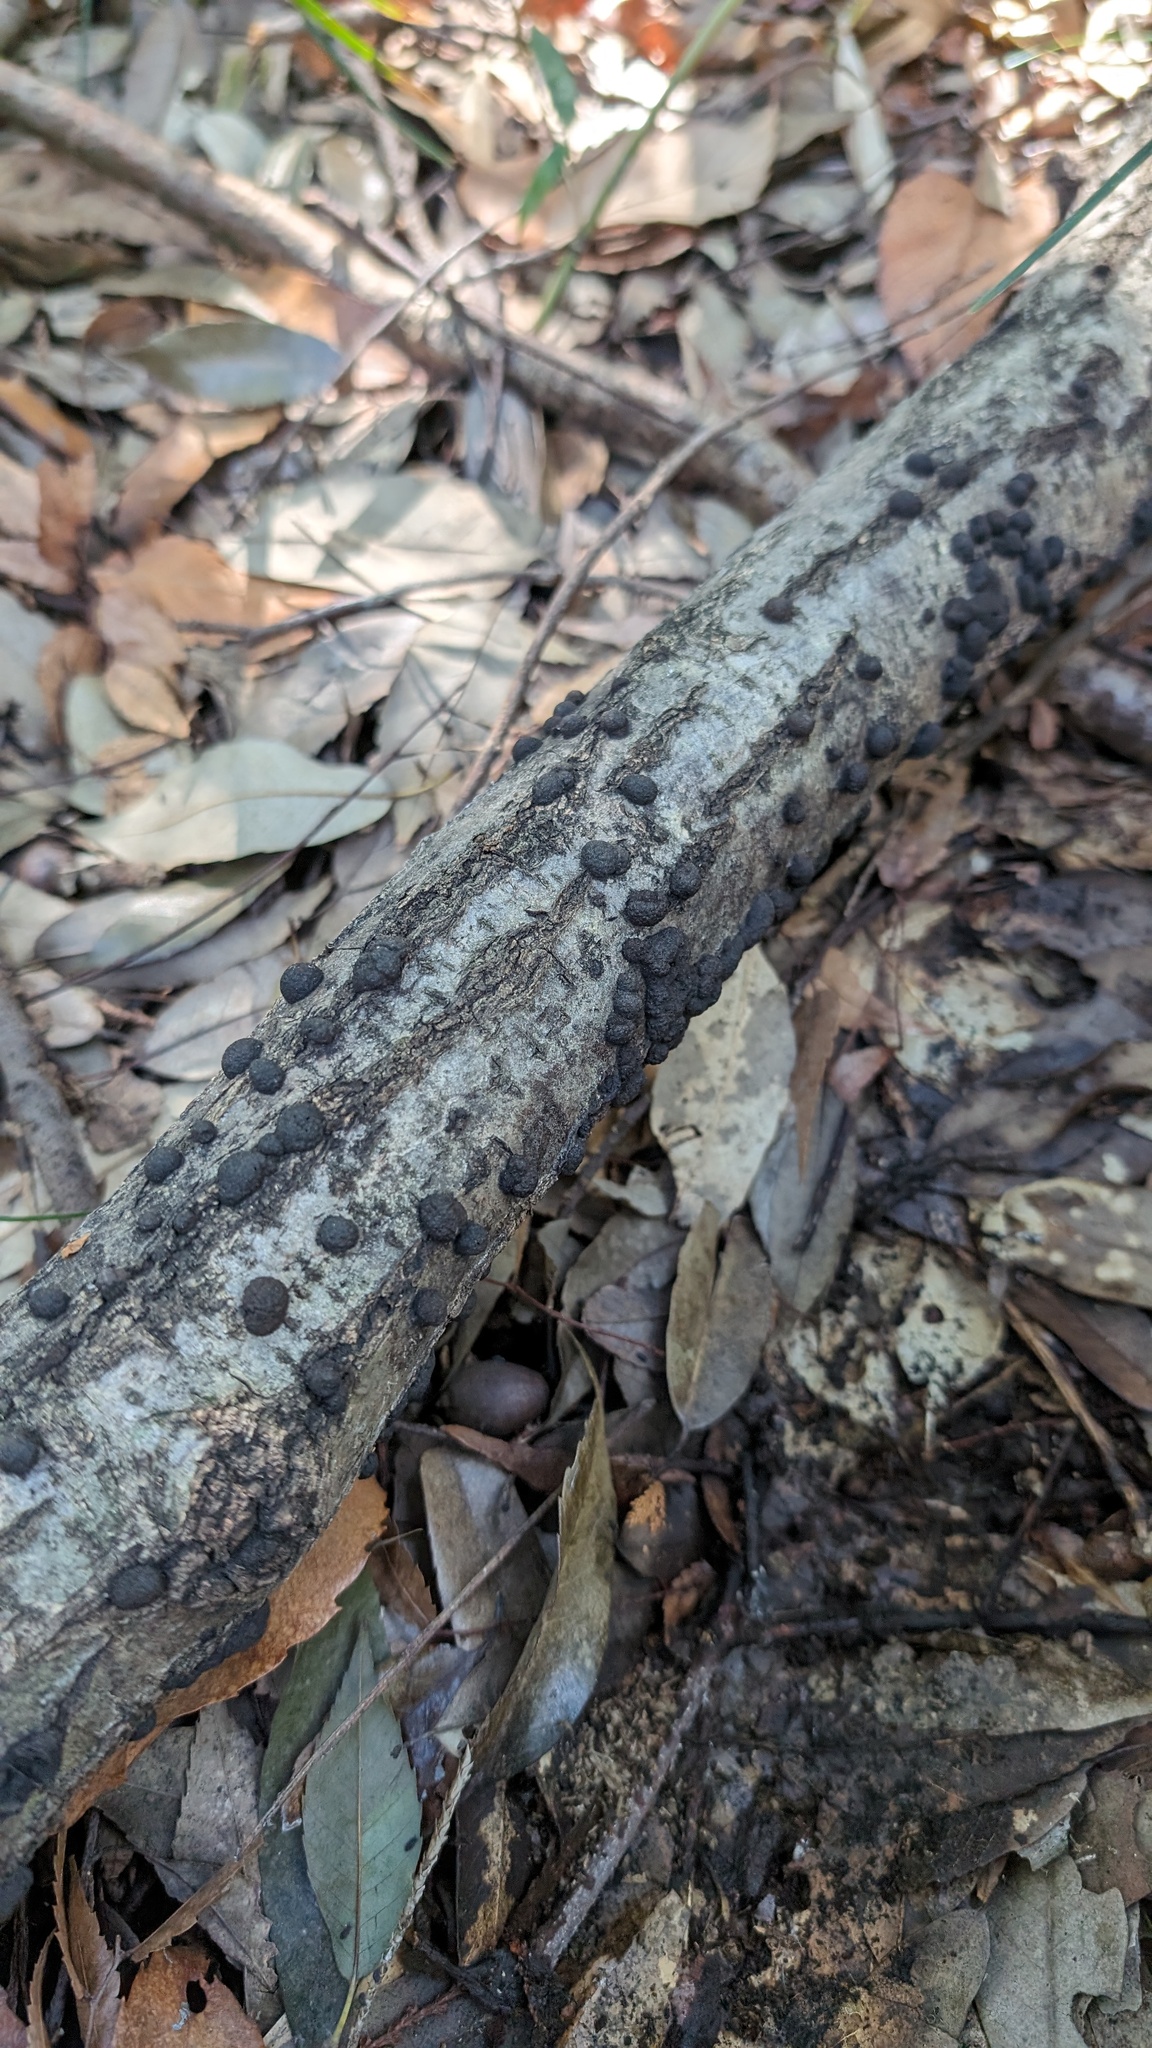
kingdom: Fungi
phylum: Ascomycota
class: Sordariomycetes
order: Xylariales
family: Hypoxylaceae
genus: Annulohypoxylon
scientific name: Annulohypoxylon truncatum
